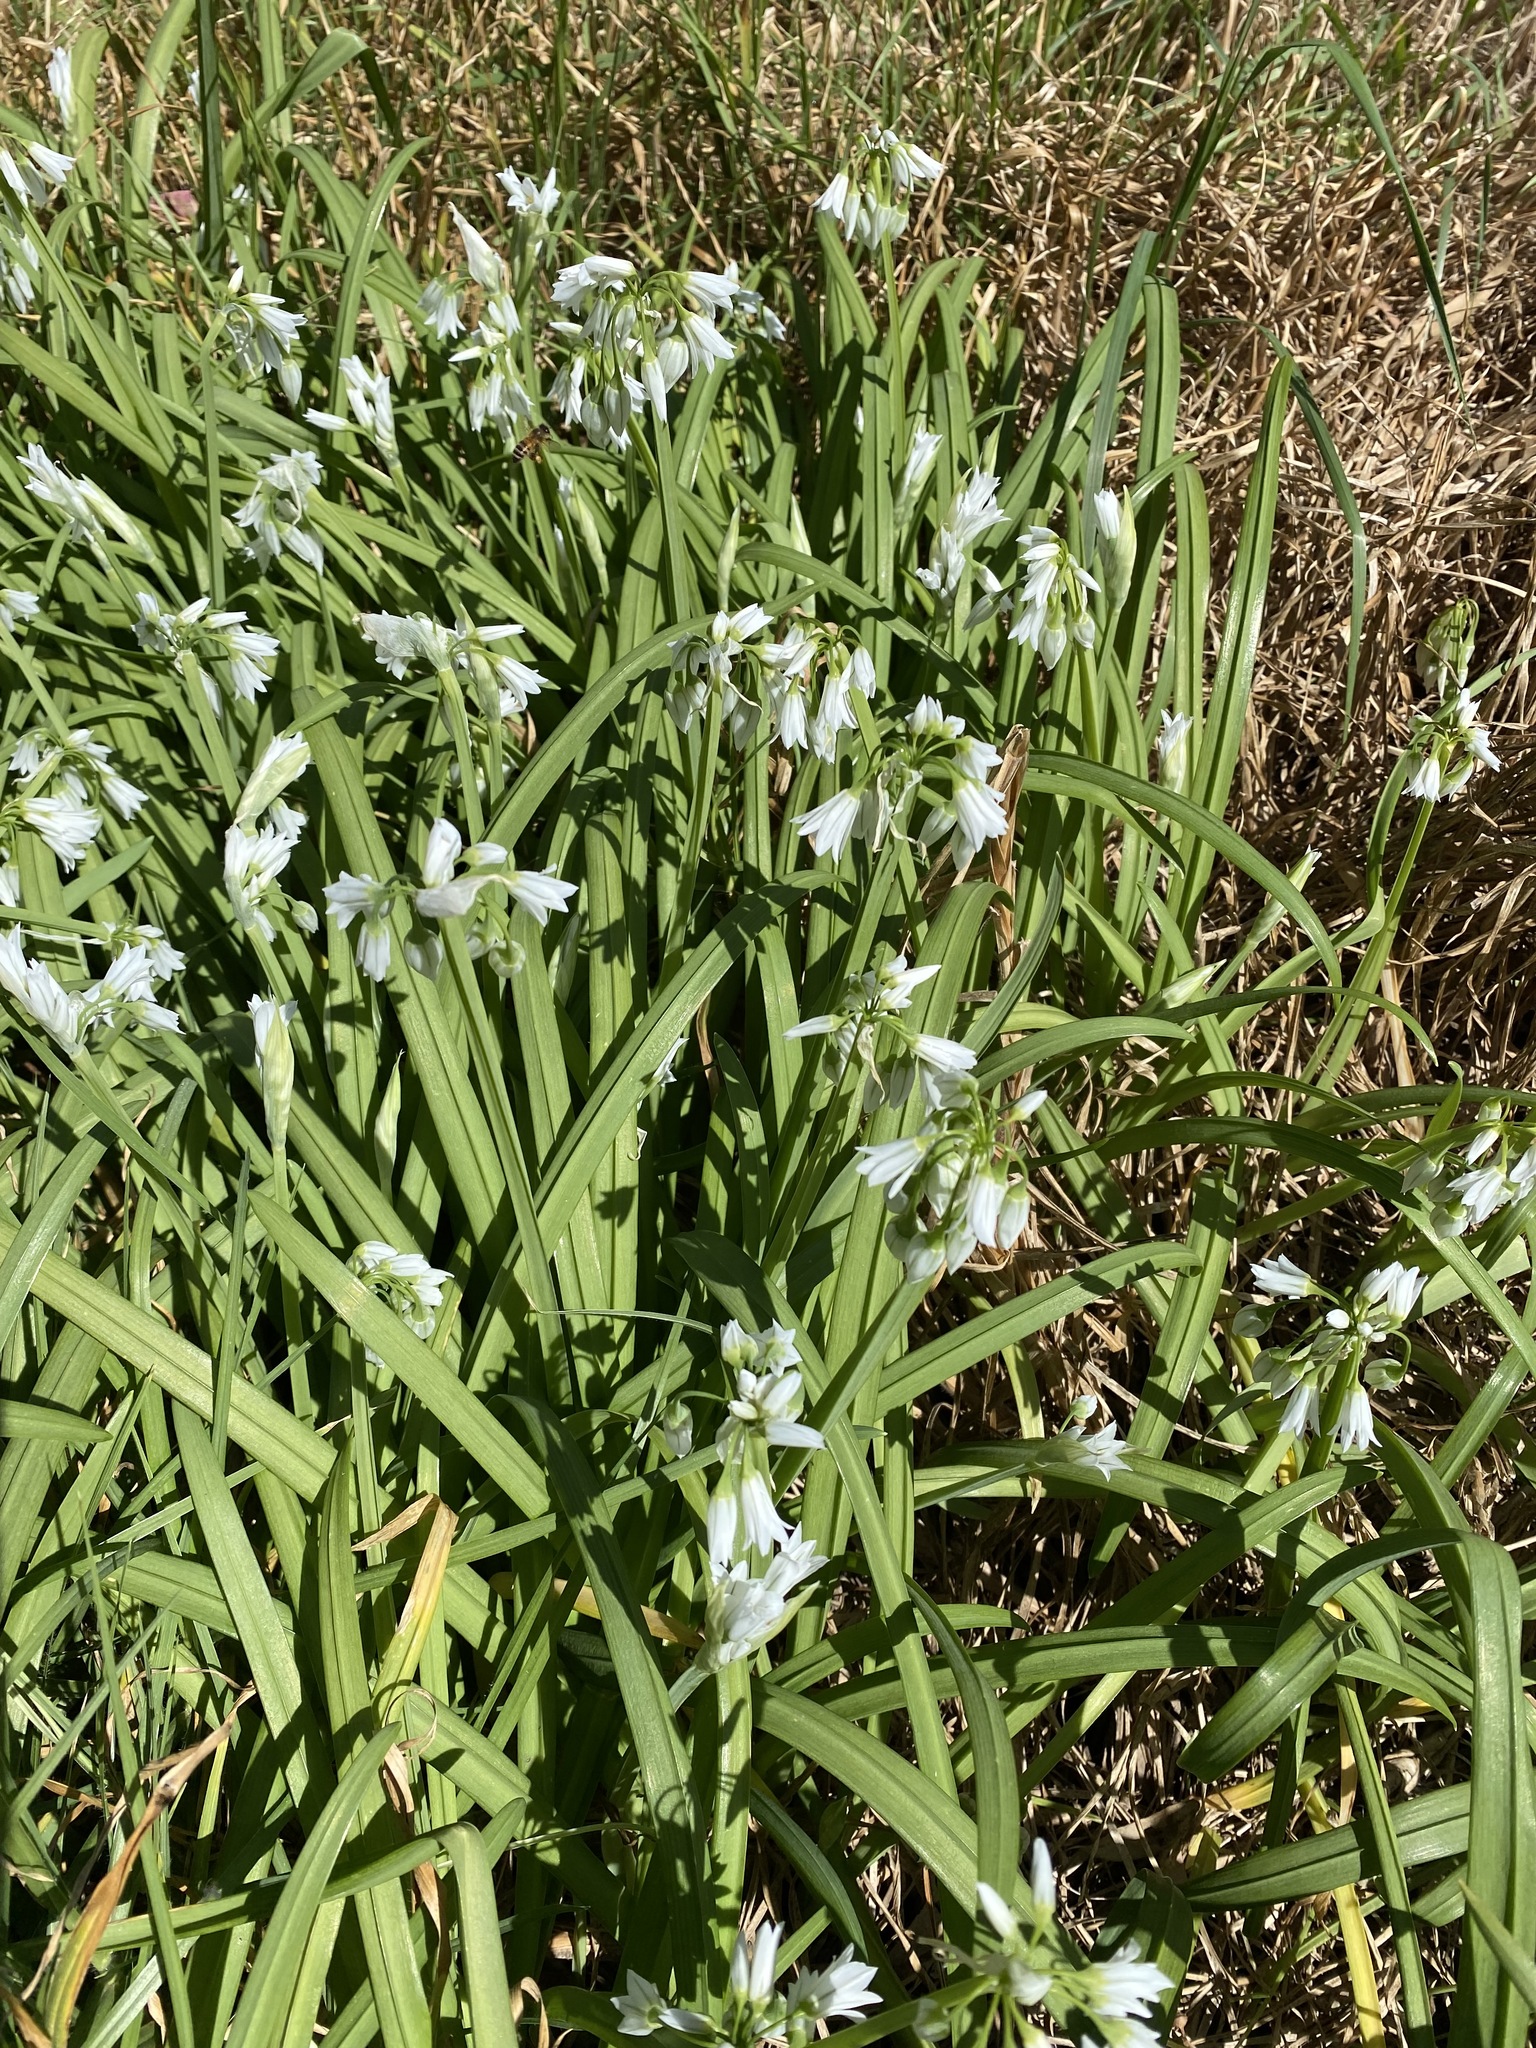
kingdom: Plantae
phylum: Tracheophyta
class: Liliopsida
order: Asparagales
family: Amaryllidaceae
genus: Allium
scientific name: Allium triquetrum
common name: Three-cornered garlic
